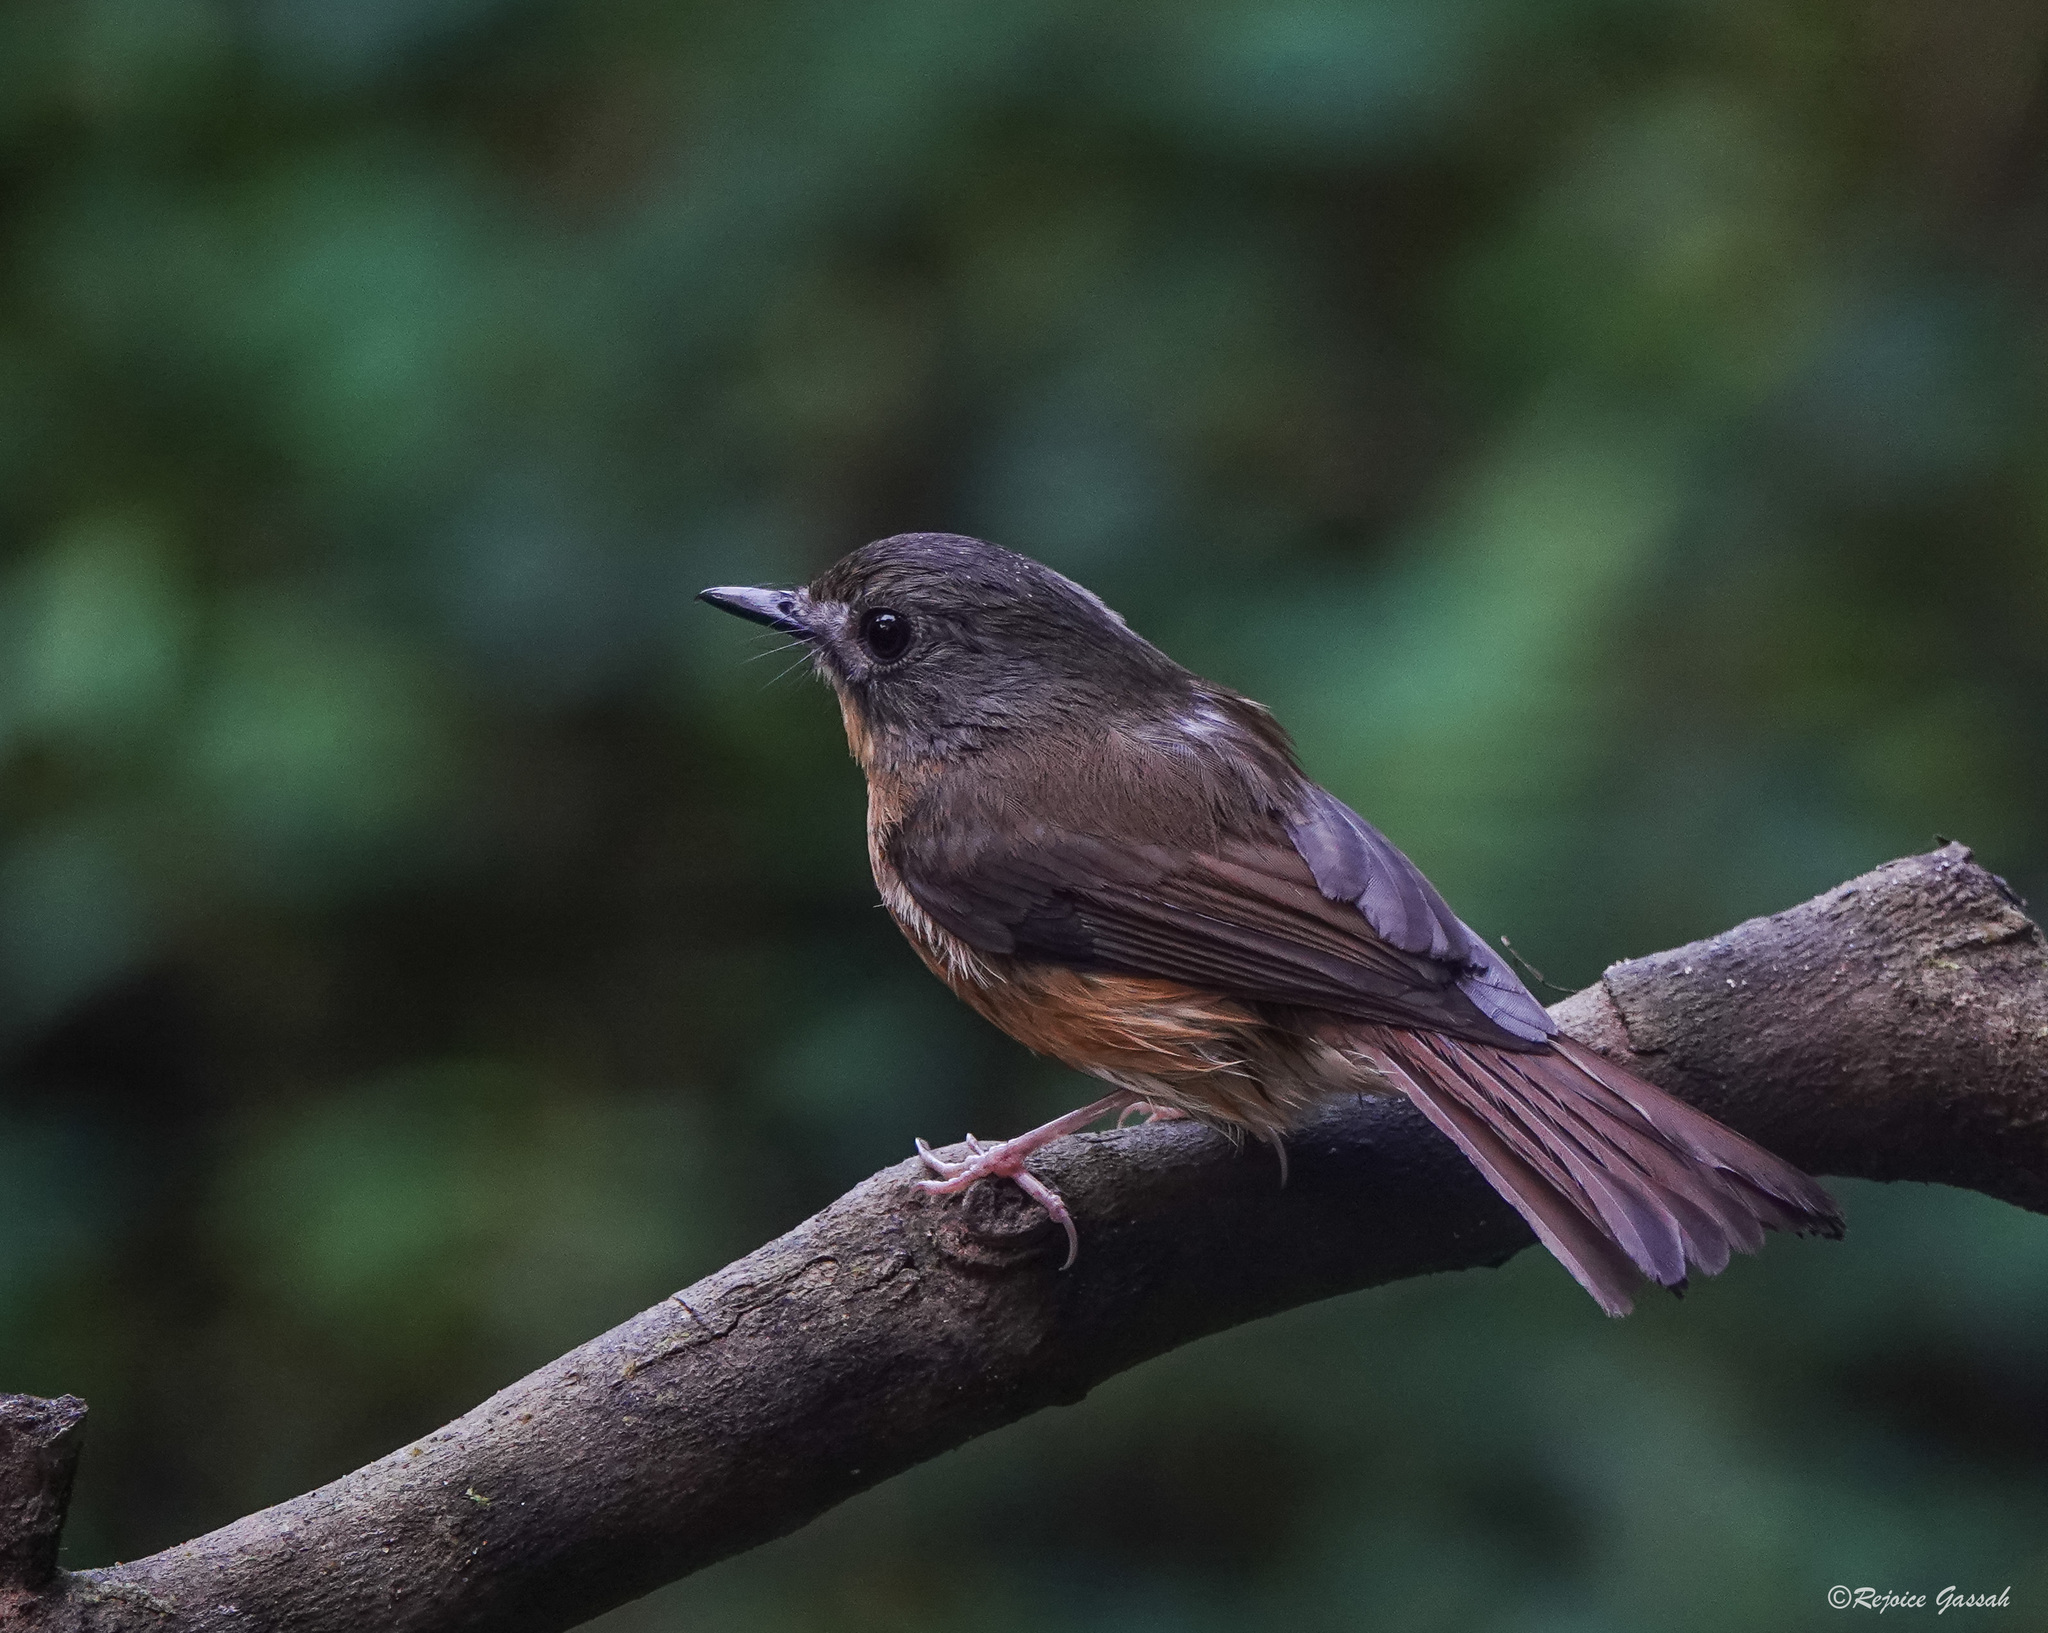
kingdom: Animalia
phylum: Chordata
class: Aves
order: Passeriformes
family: Muscicapidae
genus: Cyornis
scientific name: Cyornis poliogenys
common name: Pale-chinned blue flycatcher
